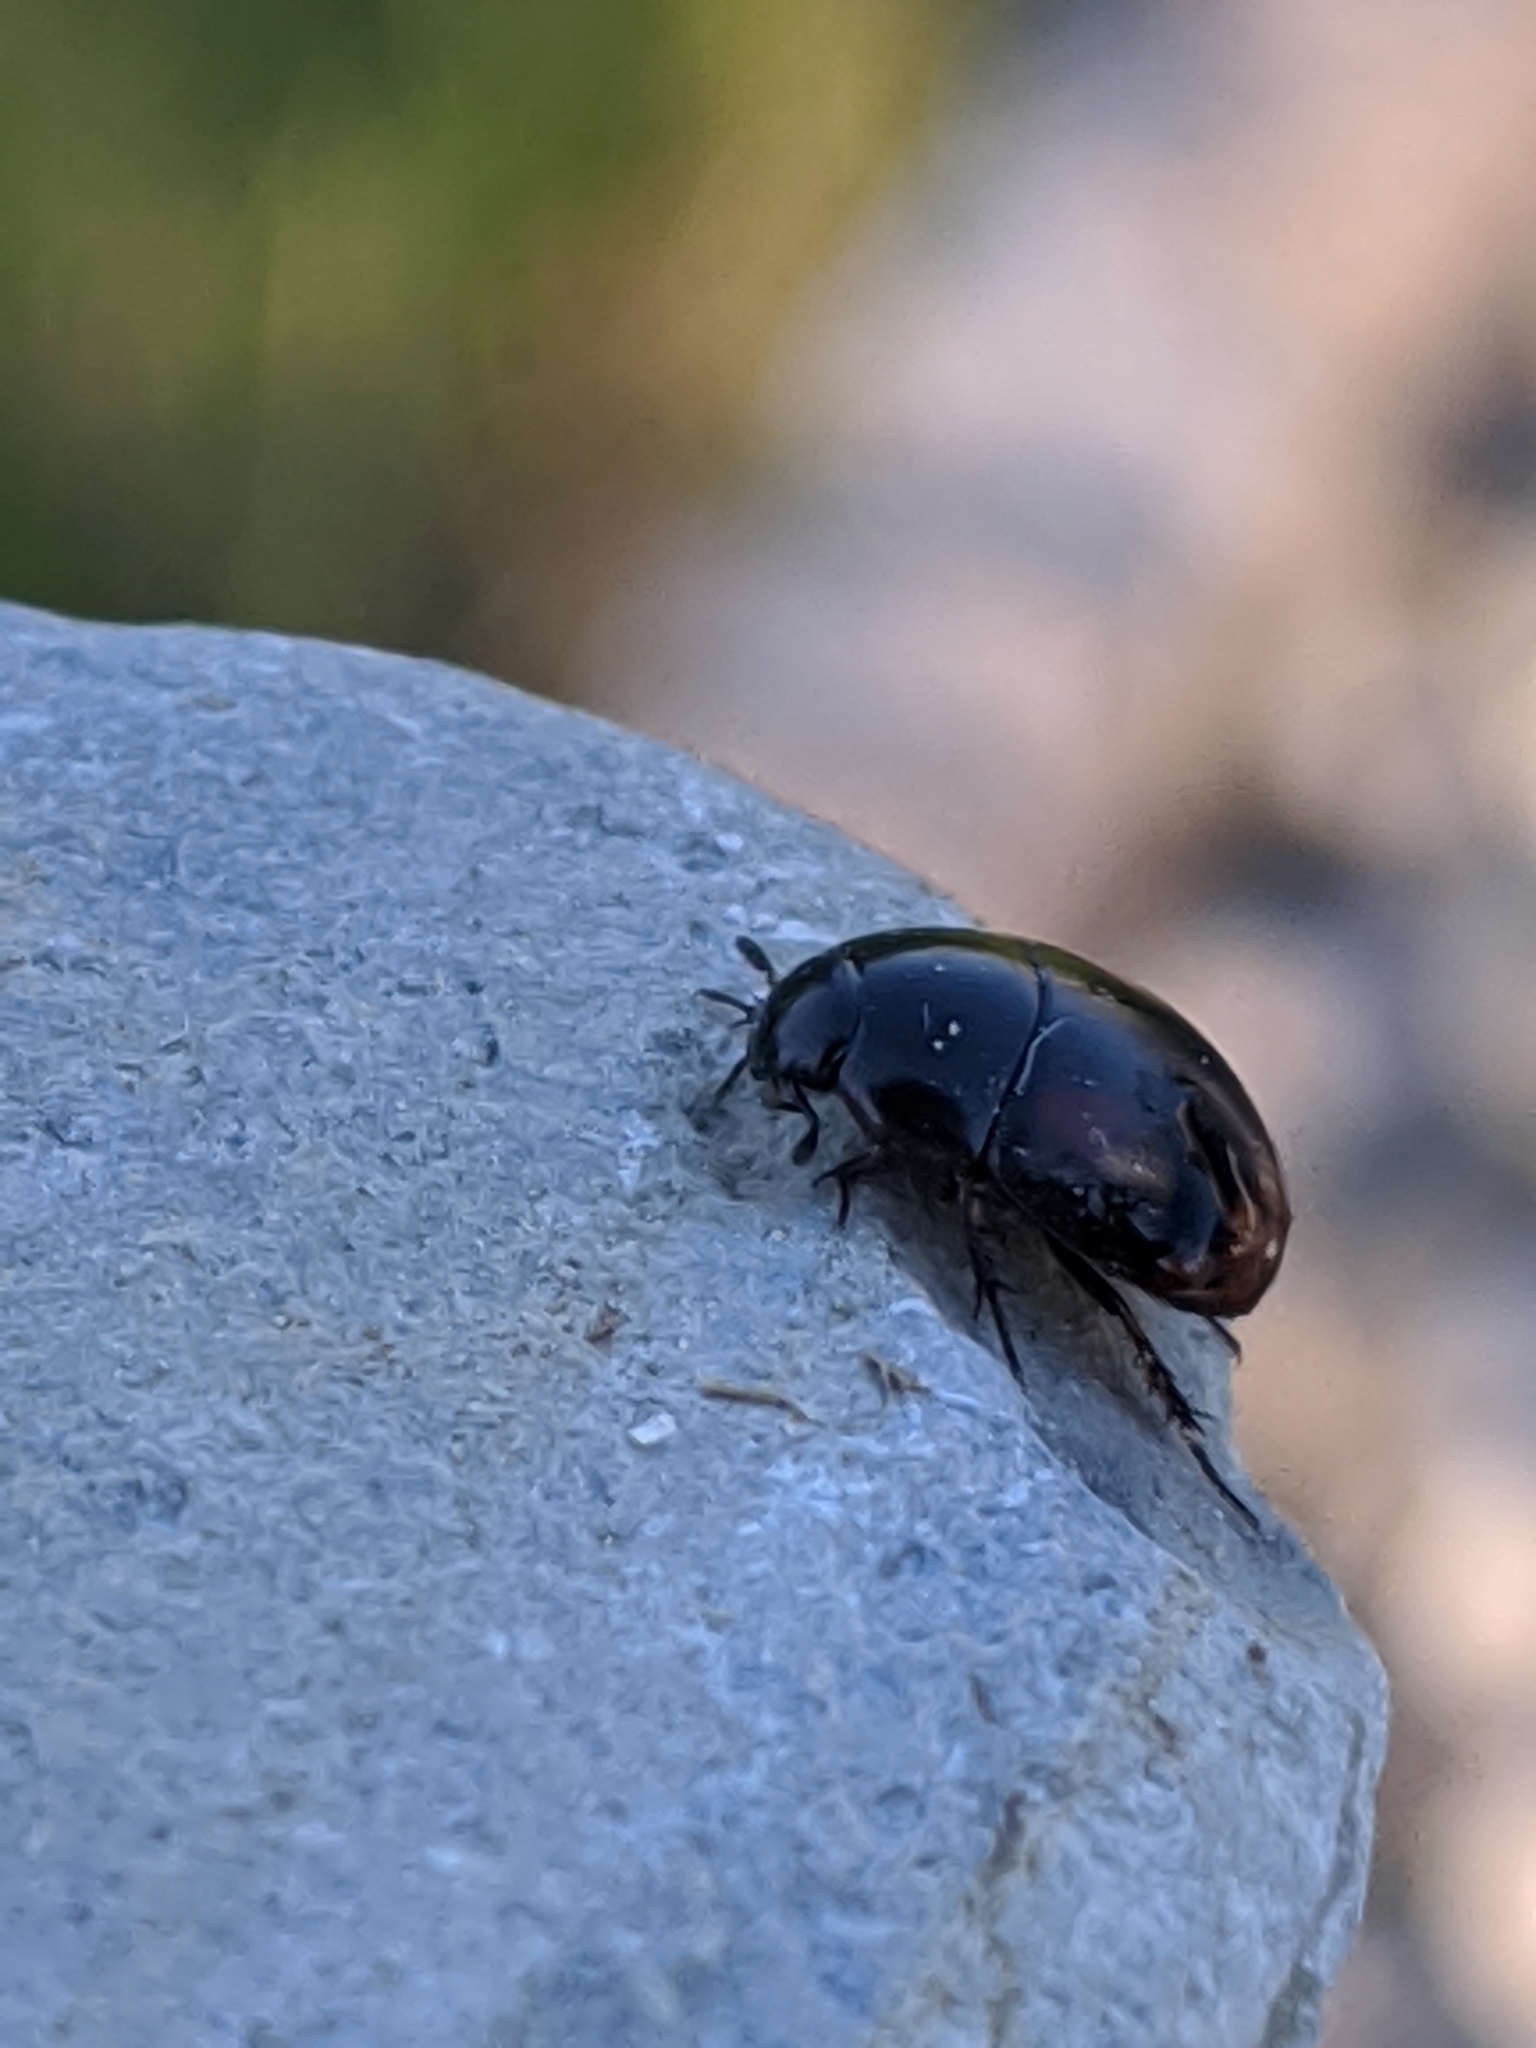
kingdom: Animalia
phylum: Arthropoda
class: Insecta
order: Coleoptera
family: Hydrophilidae
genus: Sphaeridium
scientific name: Sphaeridium
